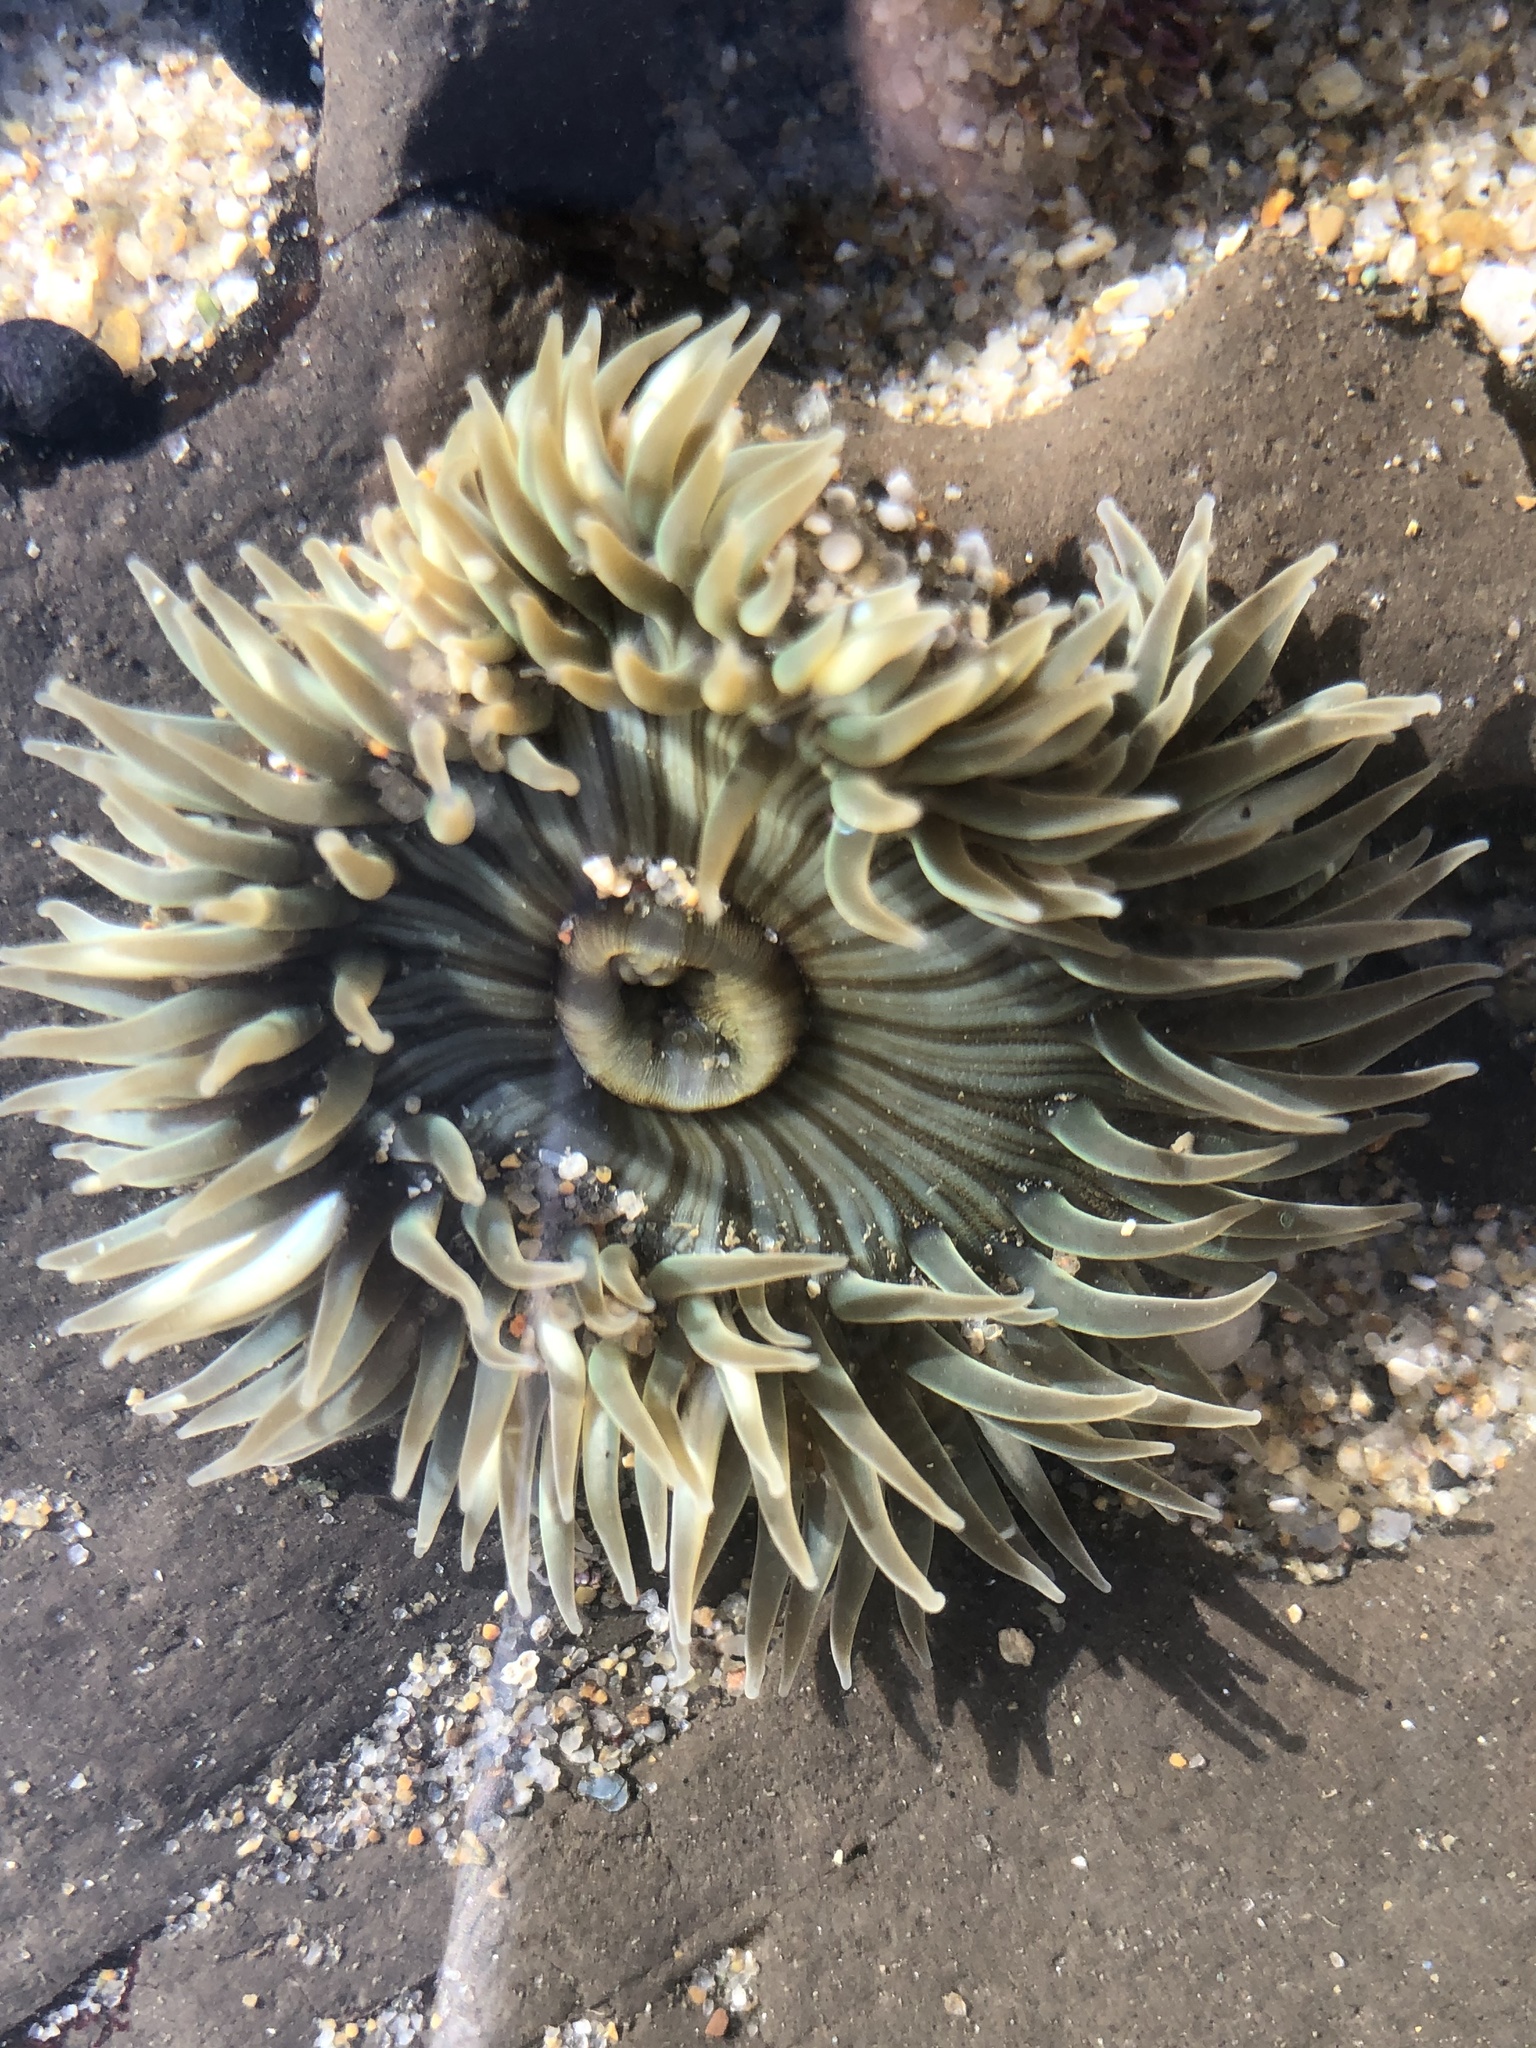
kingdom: Animalia
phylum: Cnidaria
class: Anthozoa
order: Actiniaria
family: Actiniidae
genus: Anthopleura
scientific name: Anthopleura sola
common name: Sun anemone
